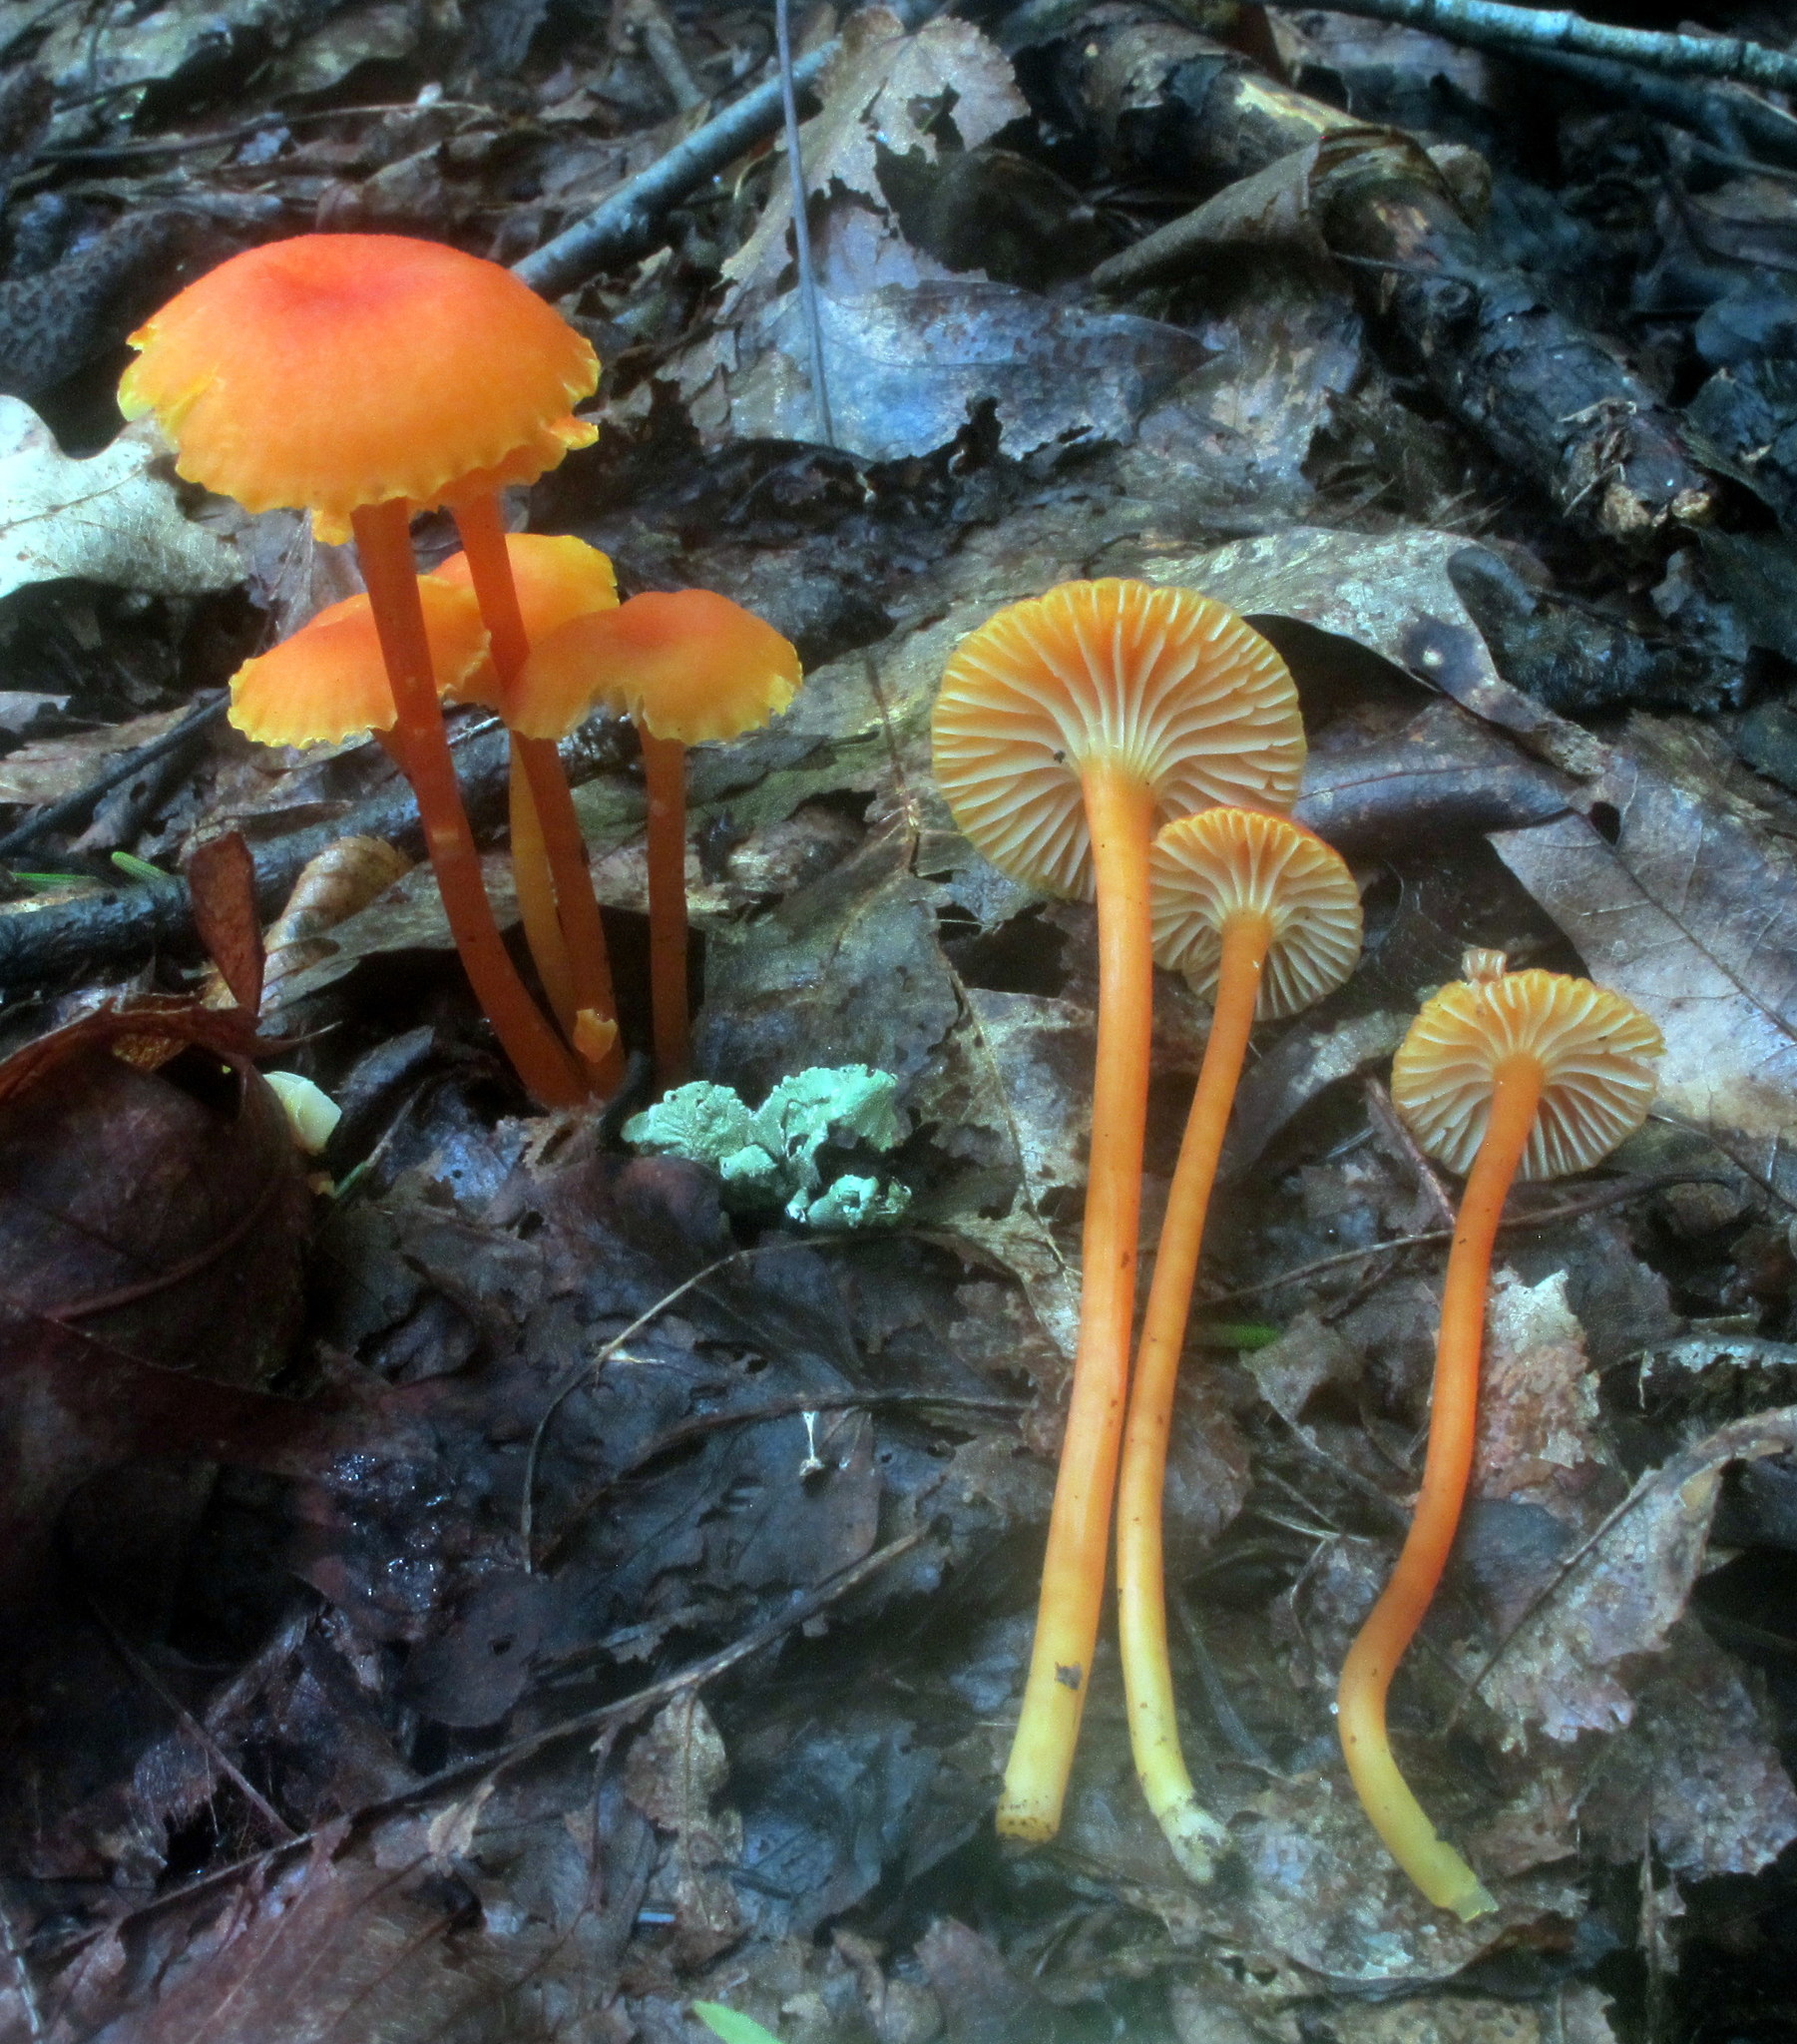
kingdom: Fungi
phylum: Basidiomycota
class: Agaricomycetes
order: Agaricales
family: Hygrophoraceae
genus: Hygrocybe
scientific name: Hygrocybe cantharellus
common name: Goblet waxcap
